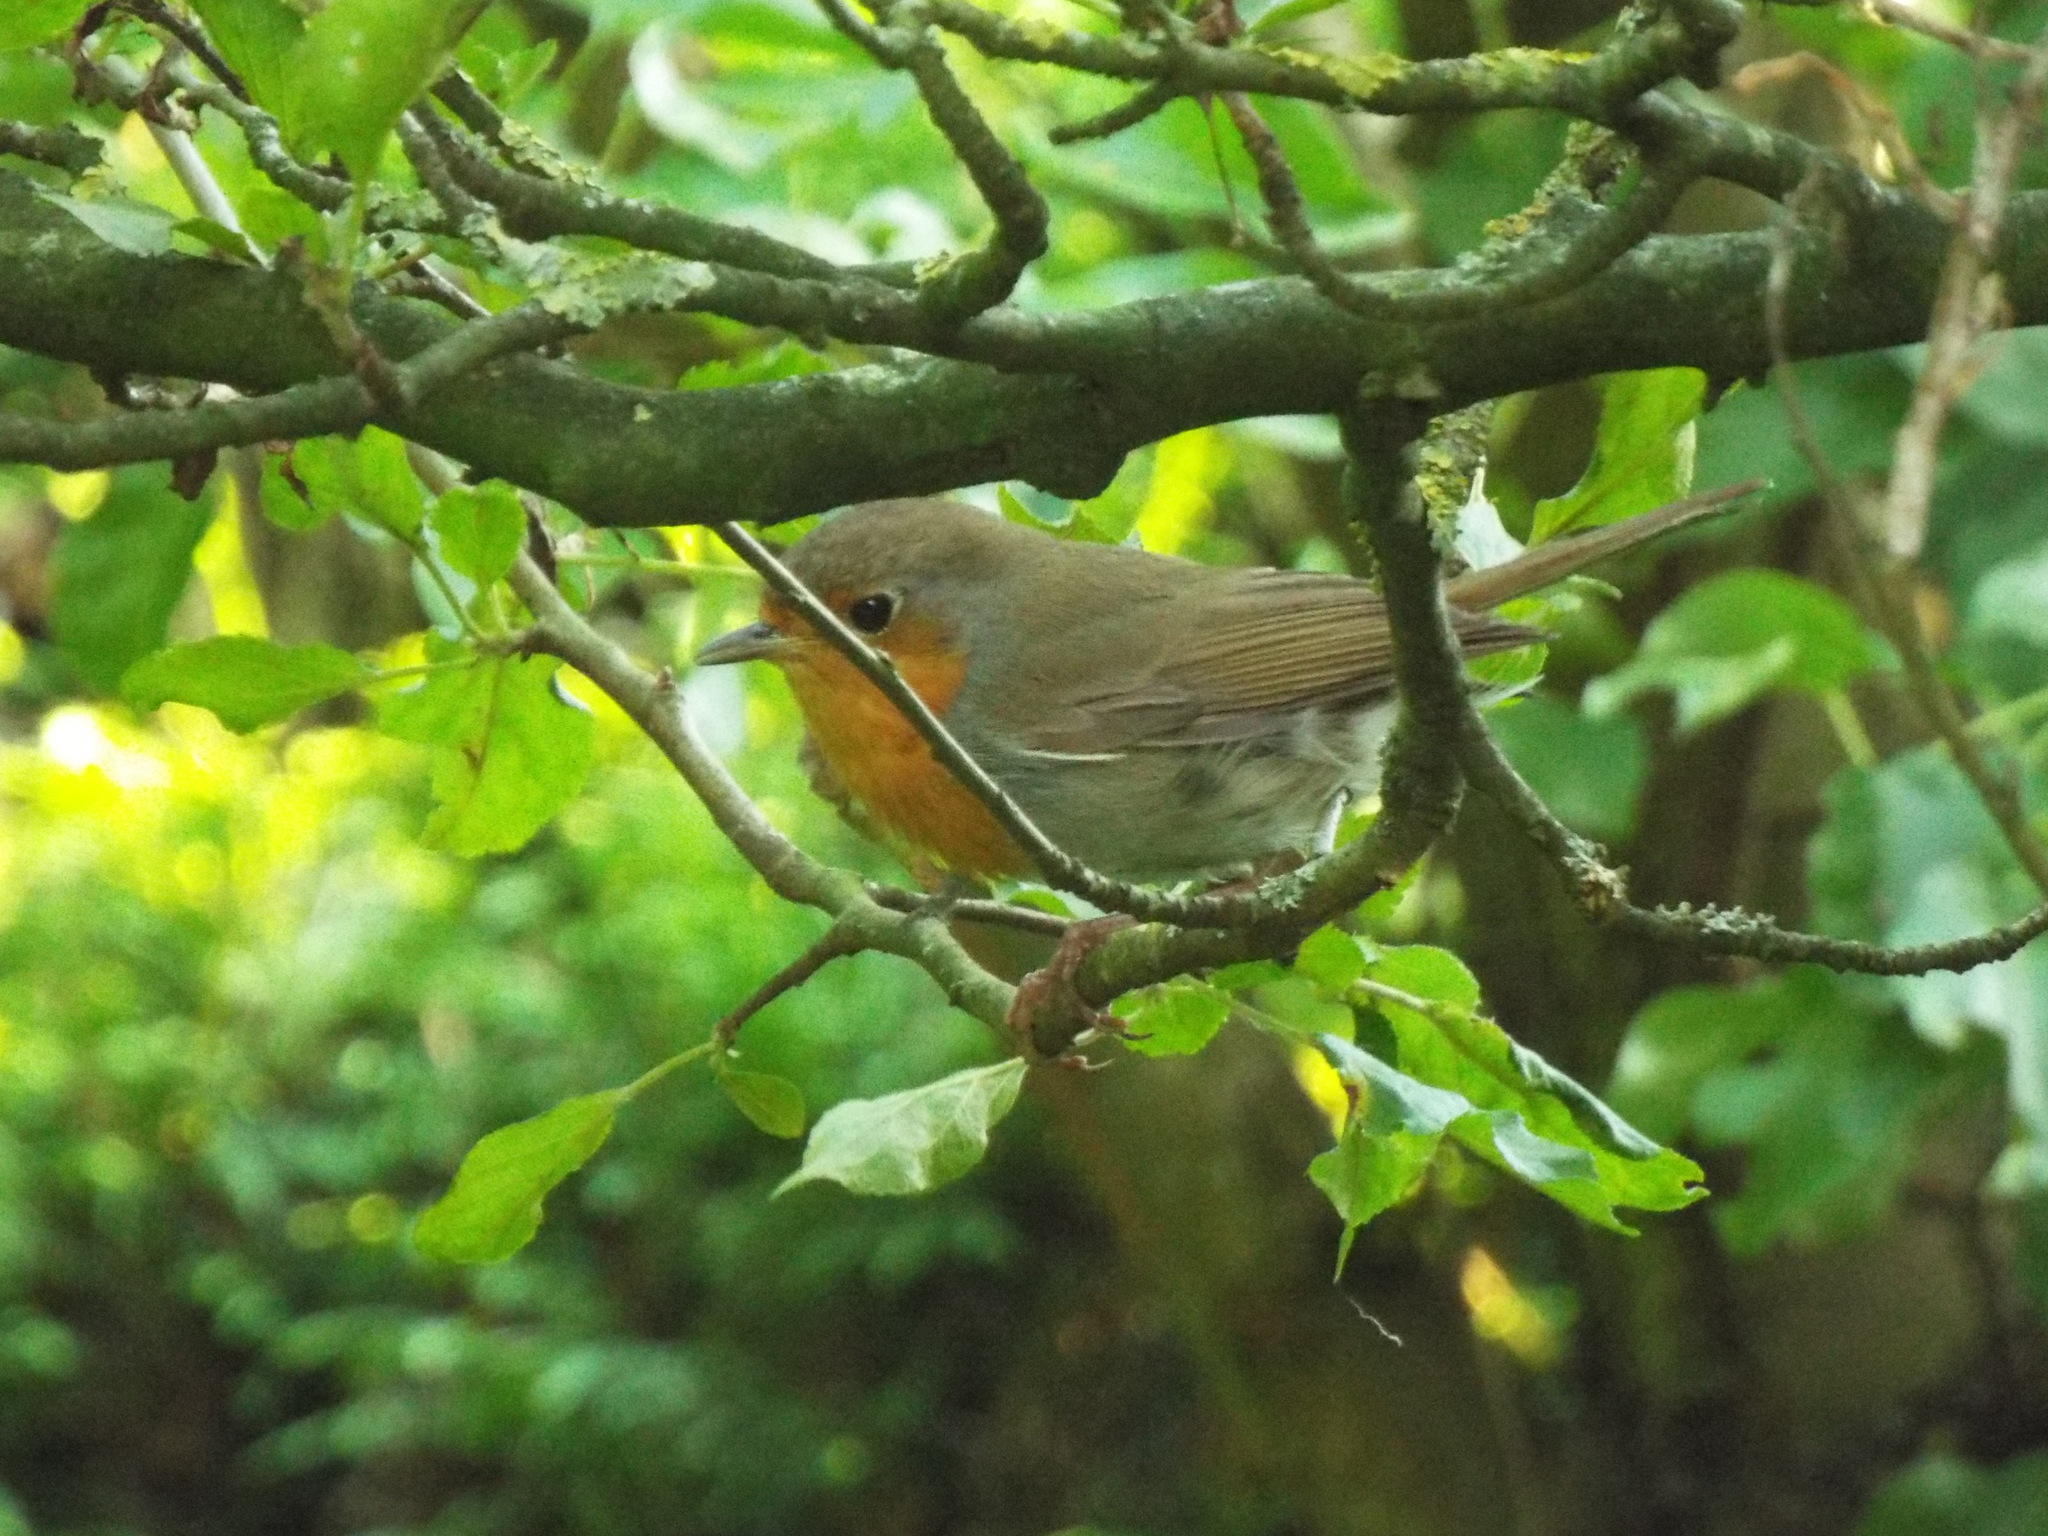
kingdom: Animalia
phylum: Chordata
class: Aves
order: Passeriformes
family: Muscicapidae
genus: Erithacus
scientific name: Erithacus rubecula
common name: European robin
